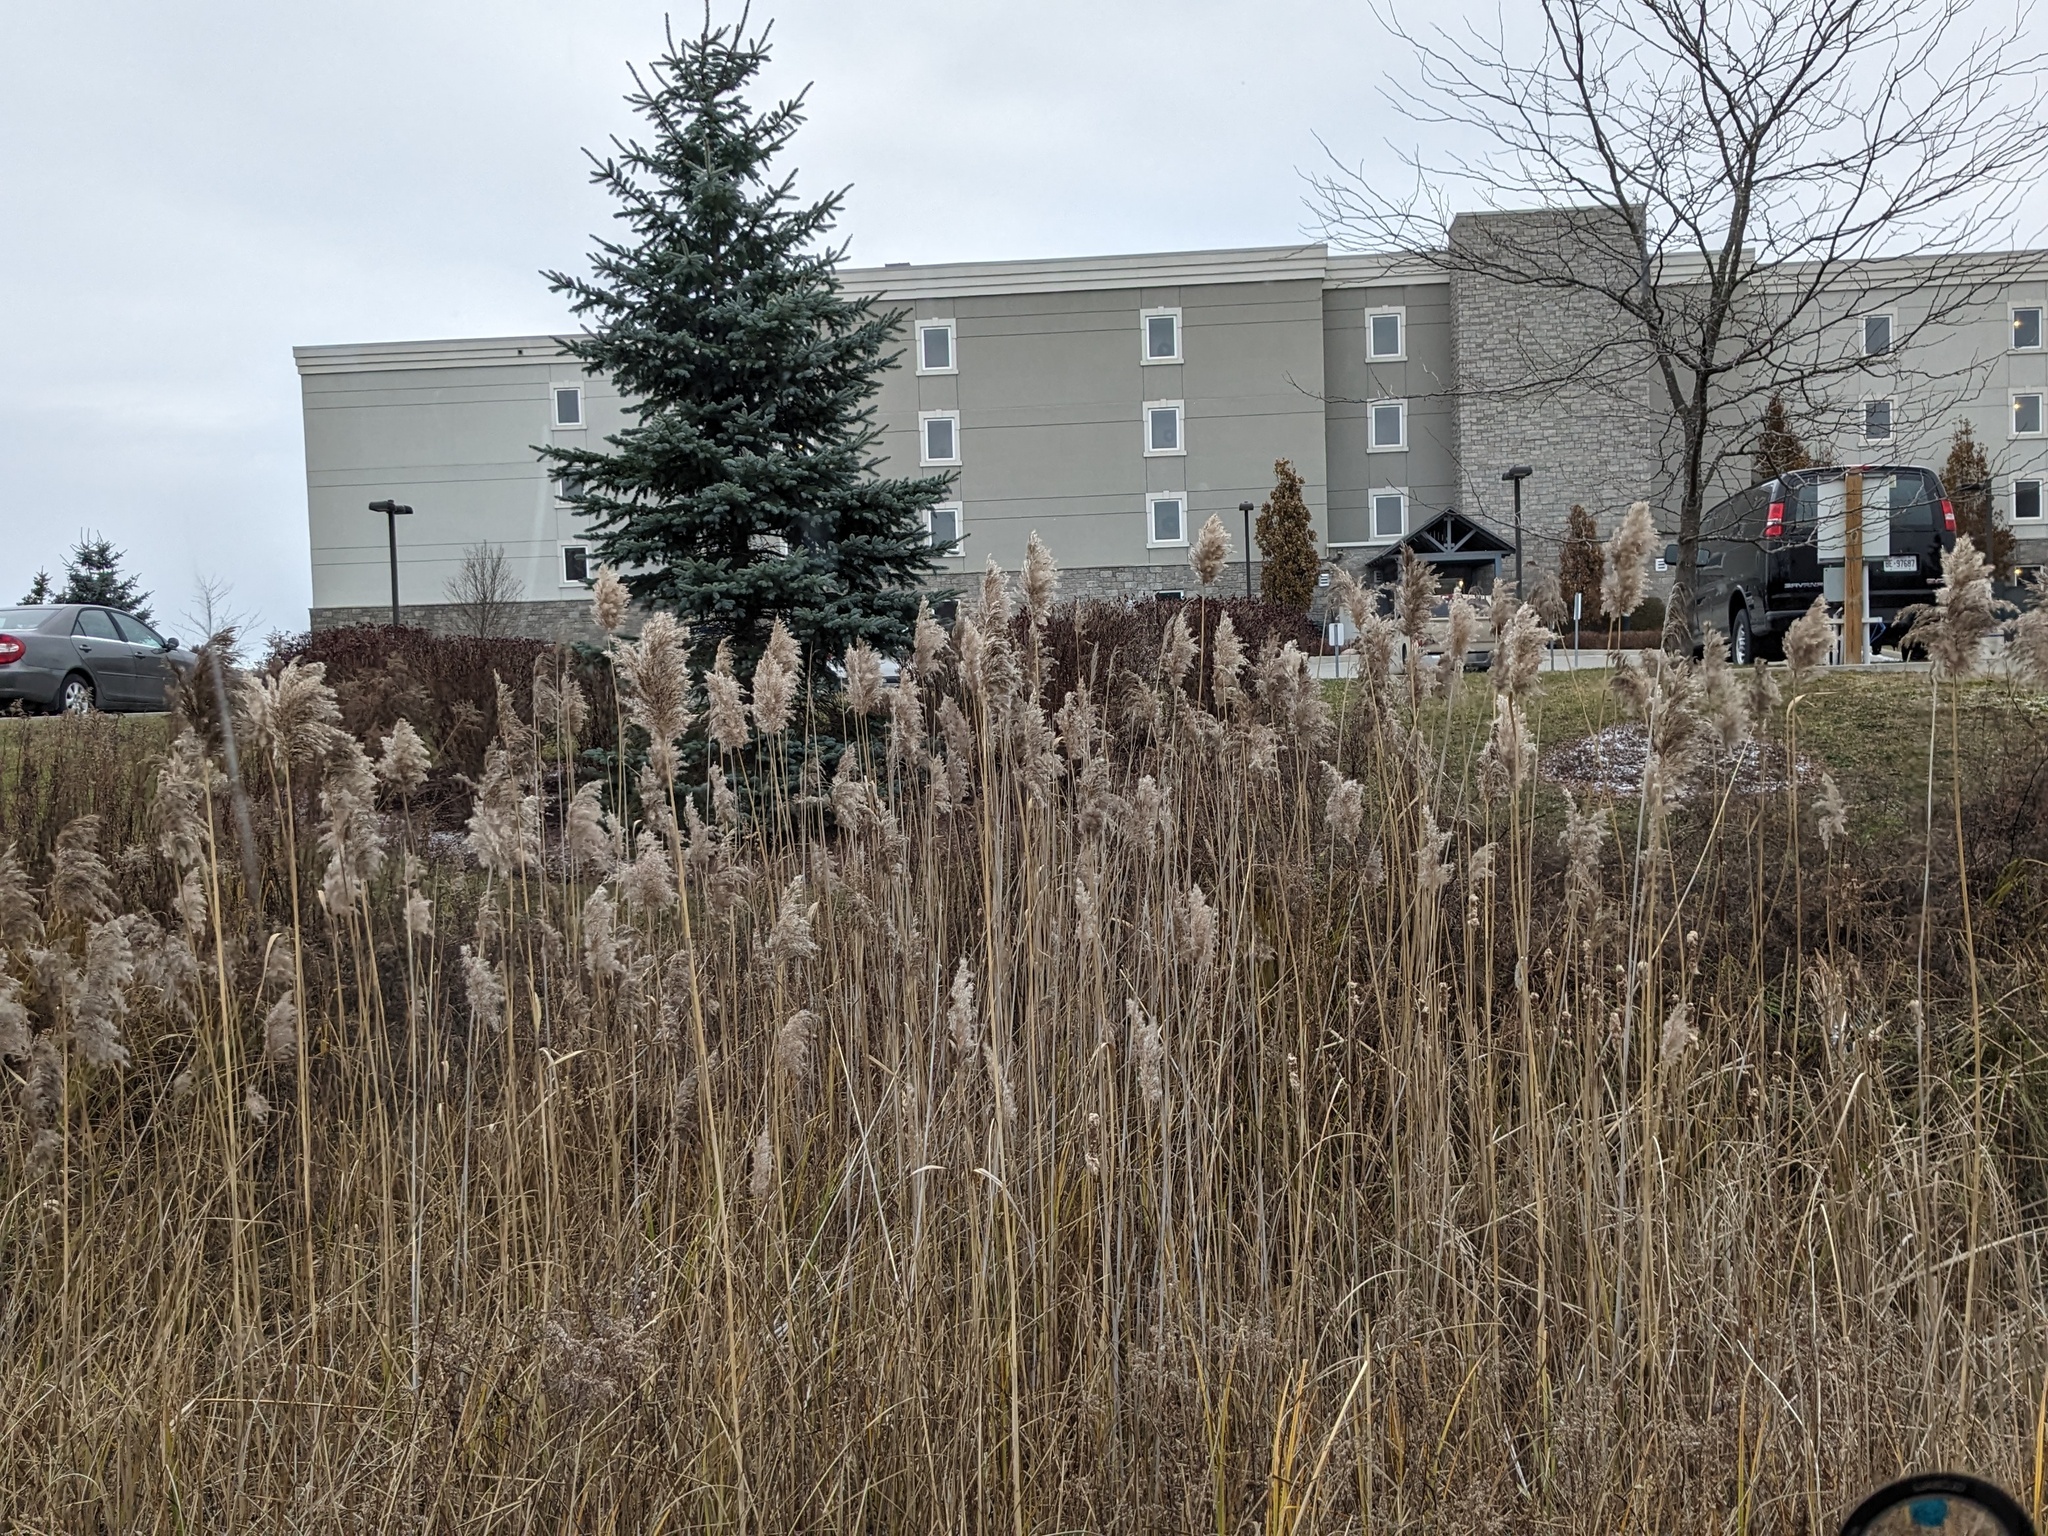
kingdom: Plantae
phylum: Tracheophyta
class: Liliopsida
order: Poales
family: Poaceae
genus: Phragmites
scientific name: Phragmites australis
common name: Common reed
